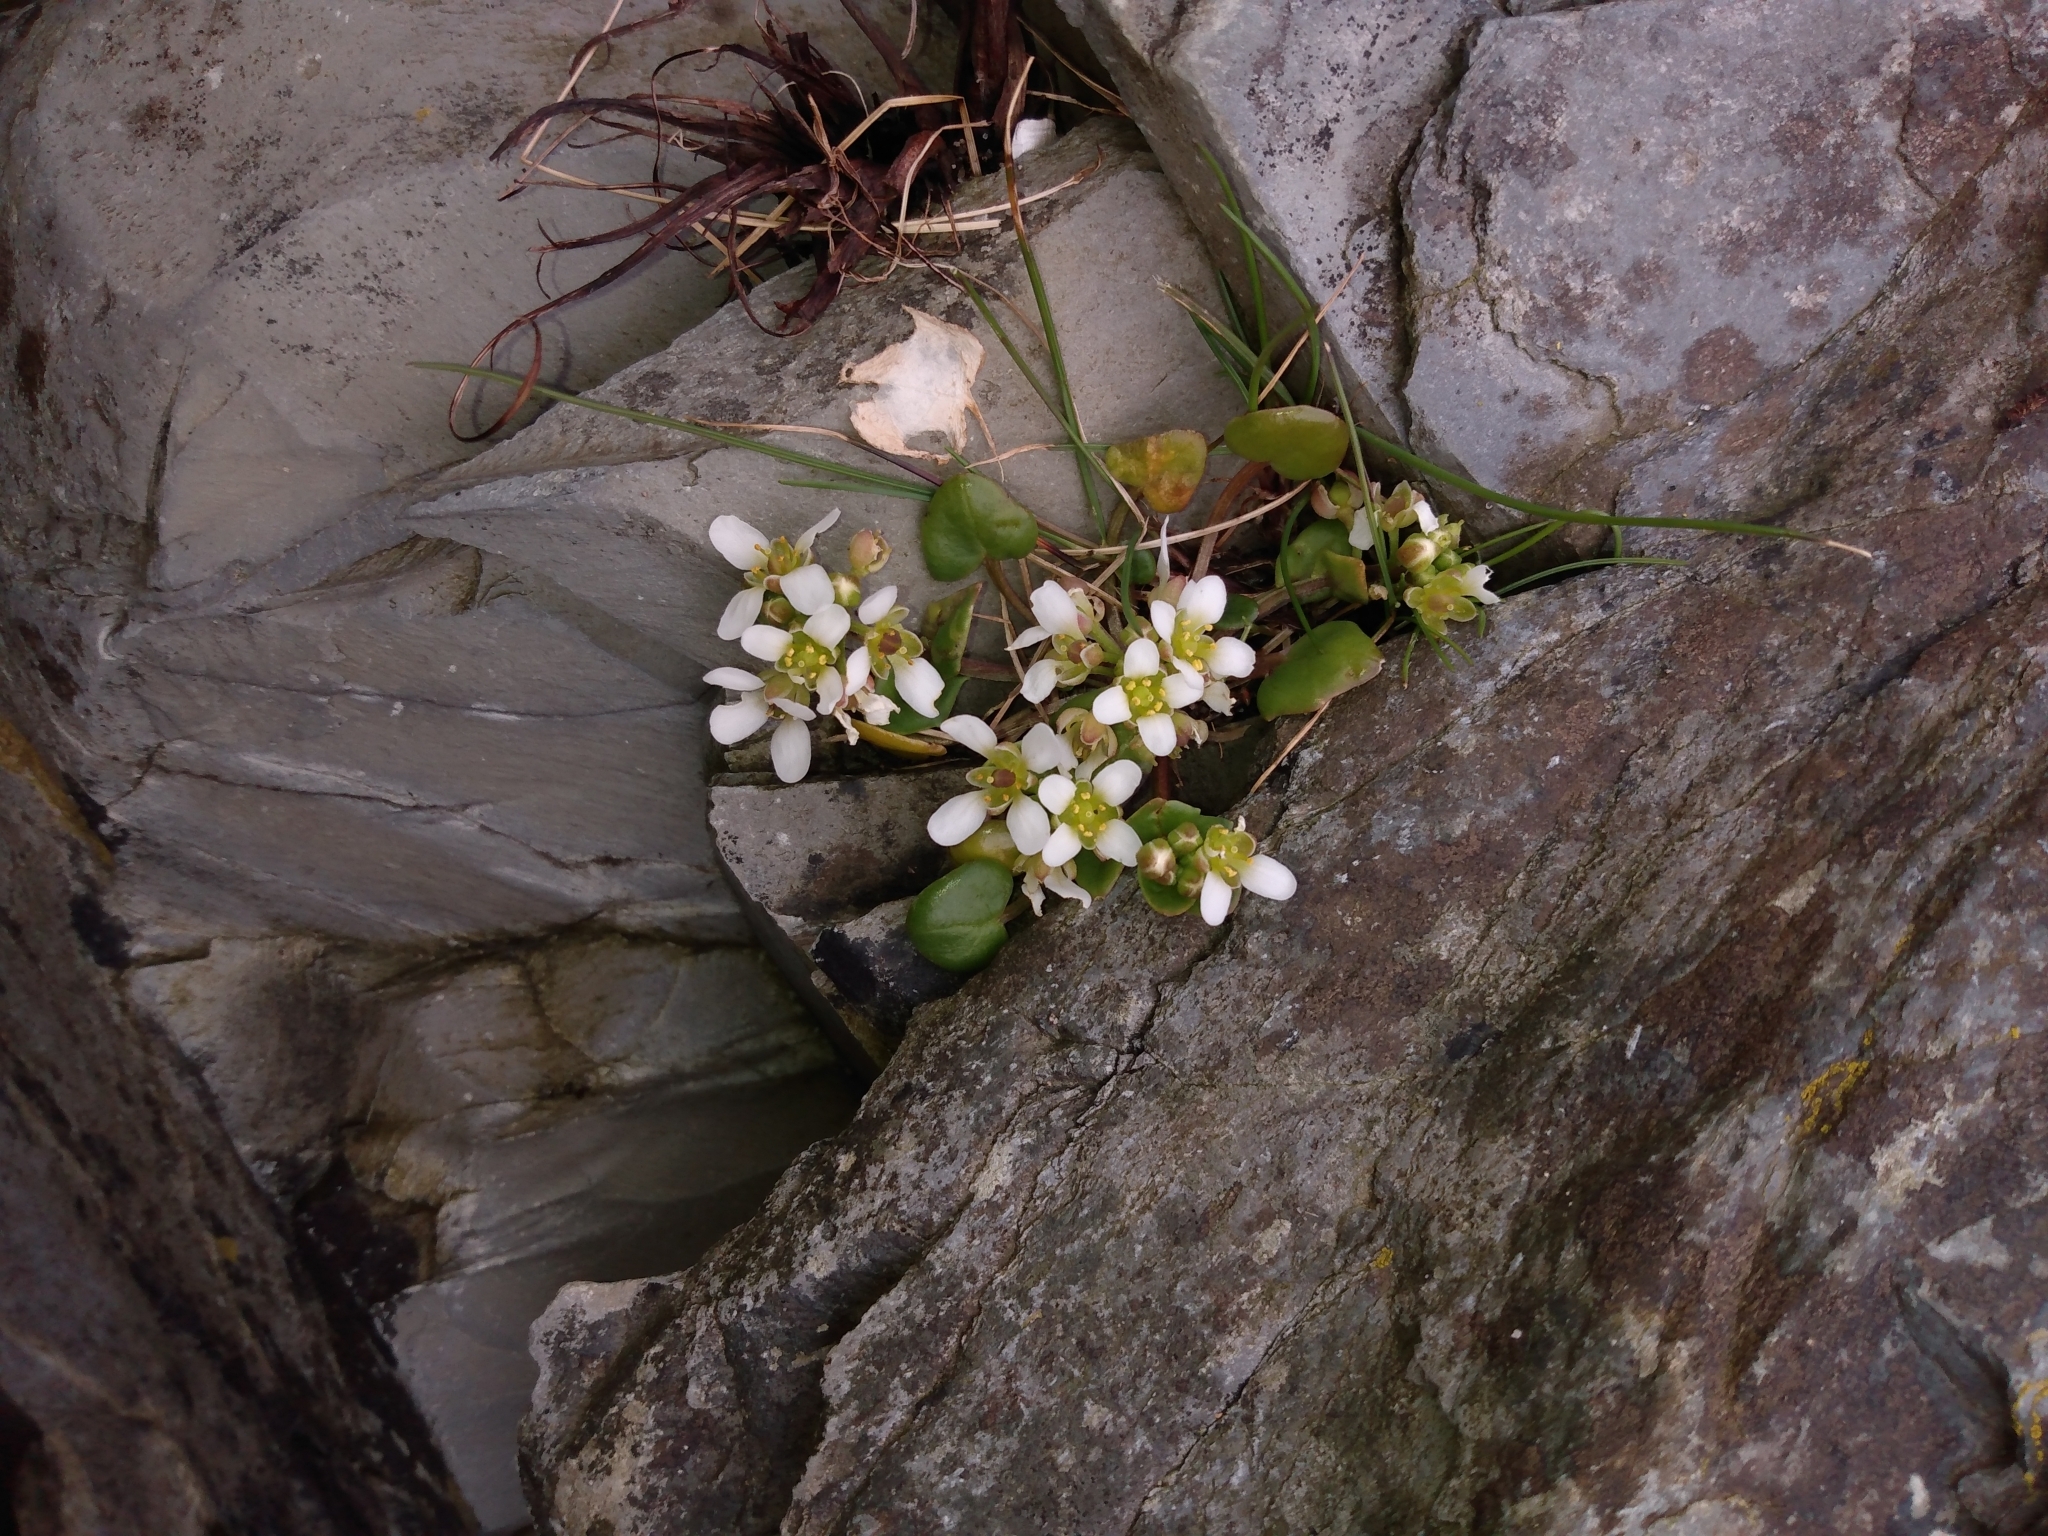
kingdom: Plantae
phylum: Tracheophyta
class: Magnoliopsida
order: Brassicales
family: Brassicaceae
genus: Cochlearia
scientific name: Cochlearia officinalis
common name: Scurvy-grass
